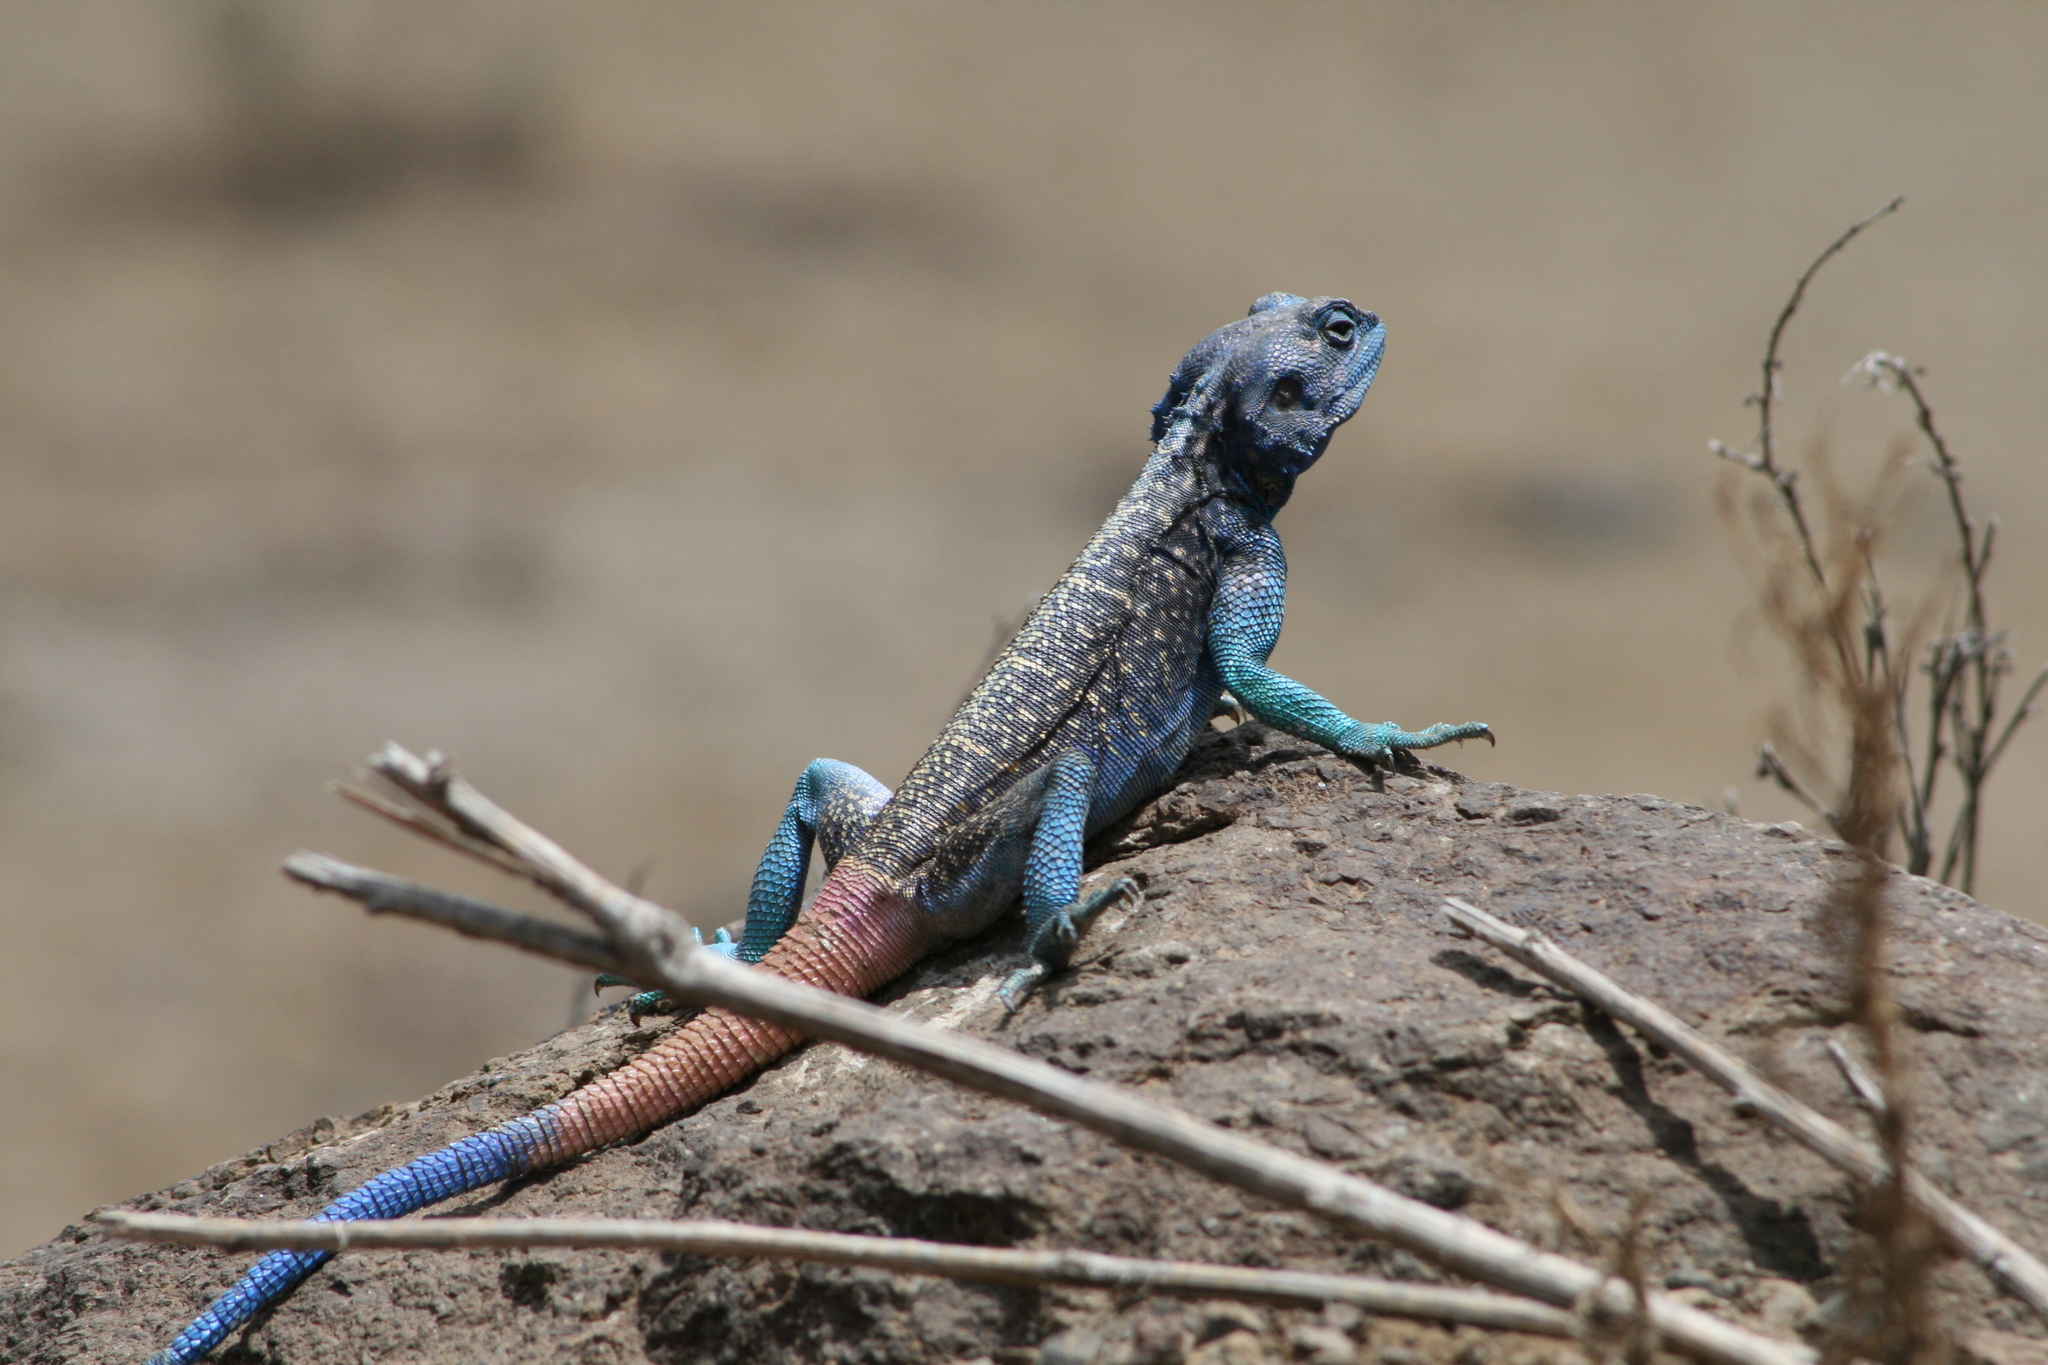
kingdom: Animalia
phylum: Chordata
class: Squamata
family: Agamidae
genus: Acanthocercus
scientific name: Acanthocercus adramitanus
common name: Anderson's rock agama
